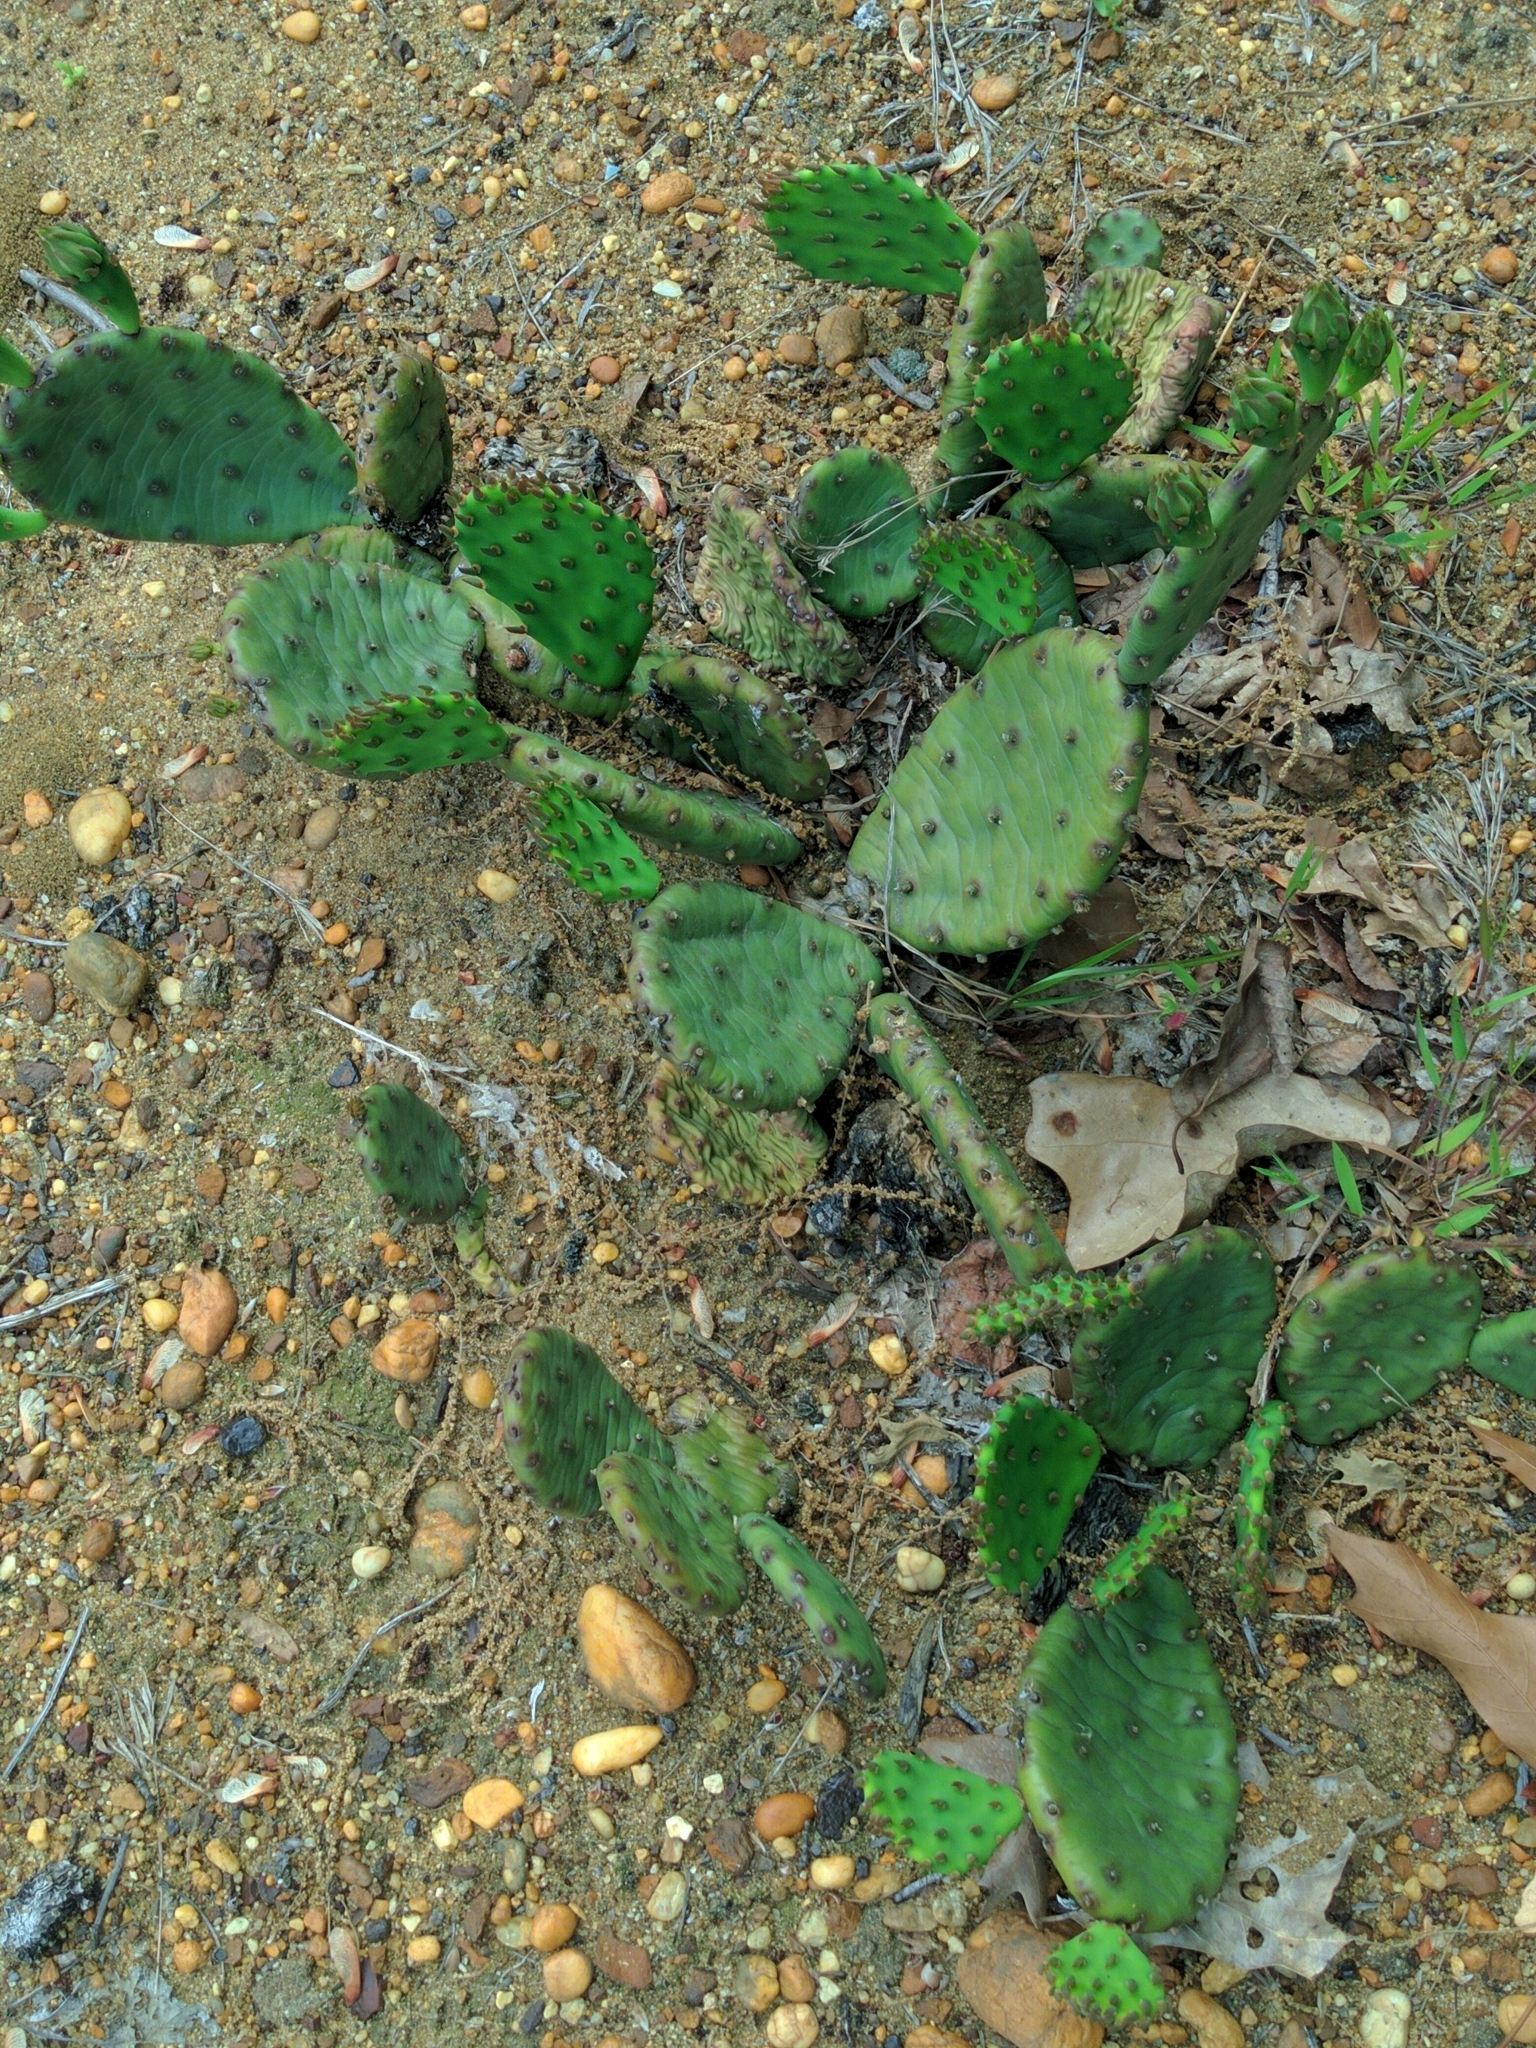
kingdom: Plantae
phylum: Tracheophyta
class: Magnoliopsida
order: Caryophyllales
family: Cactaceae
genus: Opuntia
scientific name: Opuntia humifusa
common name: Eastern prickly-pear
